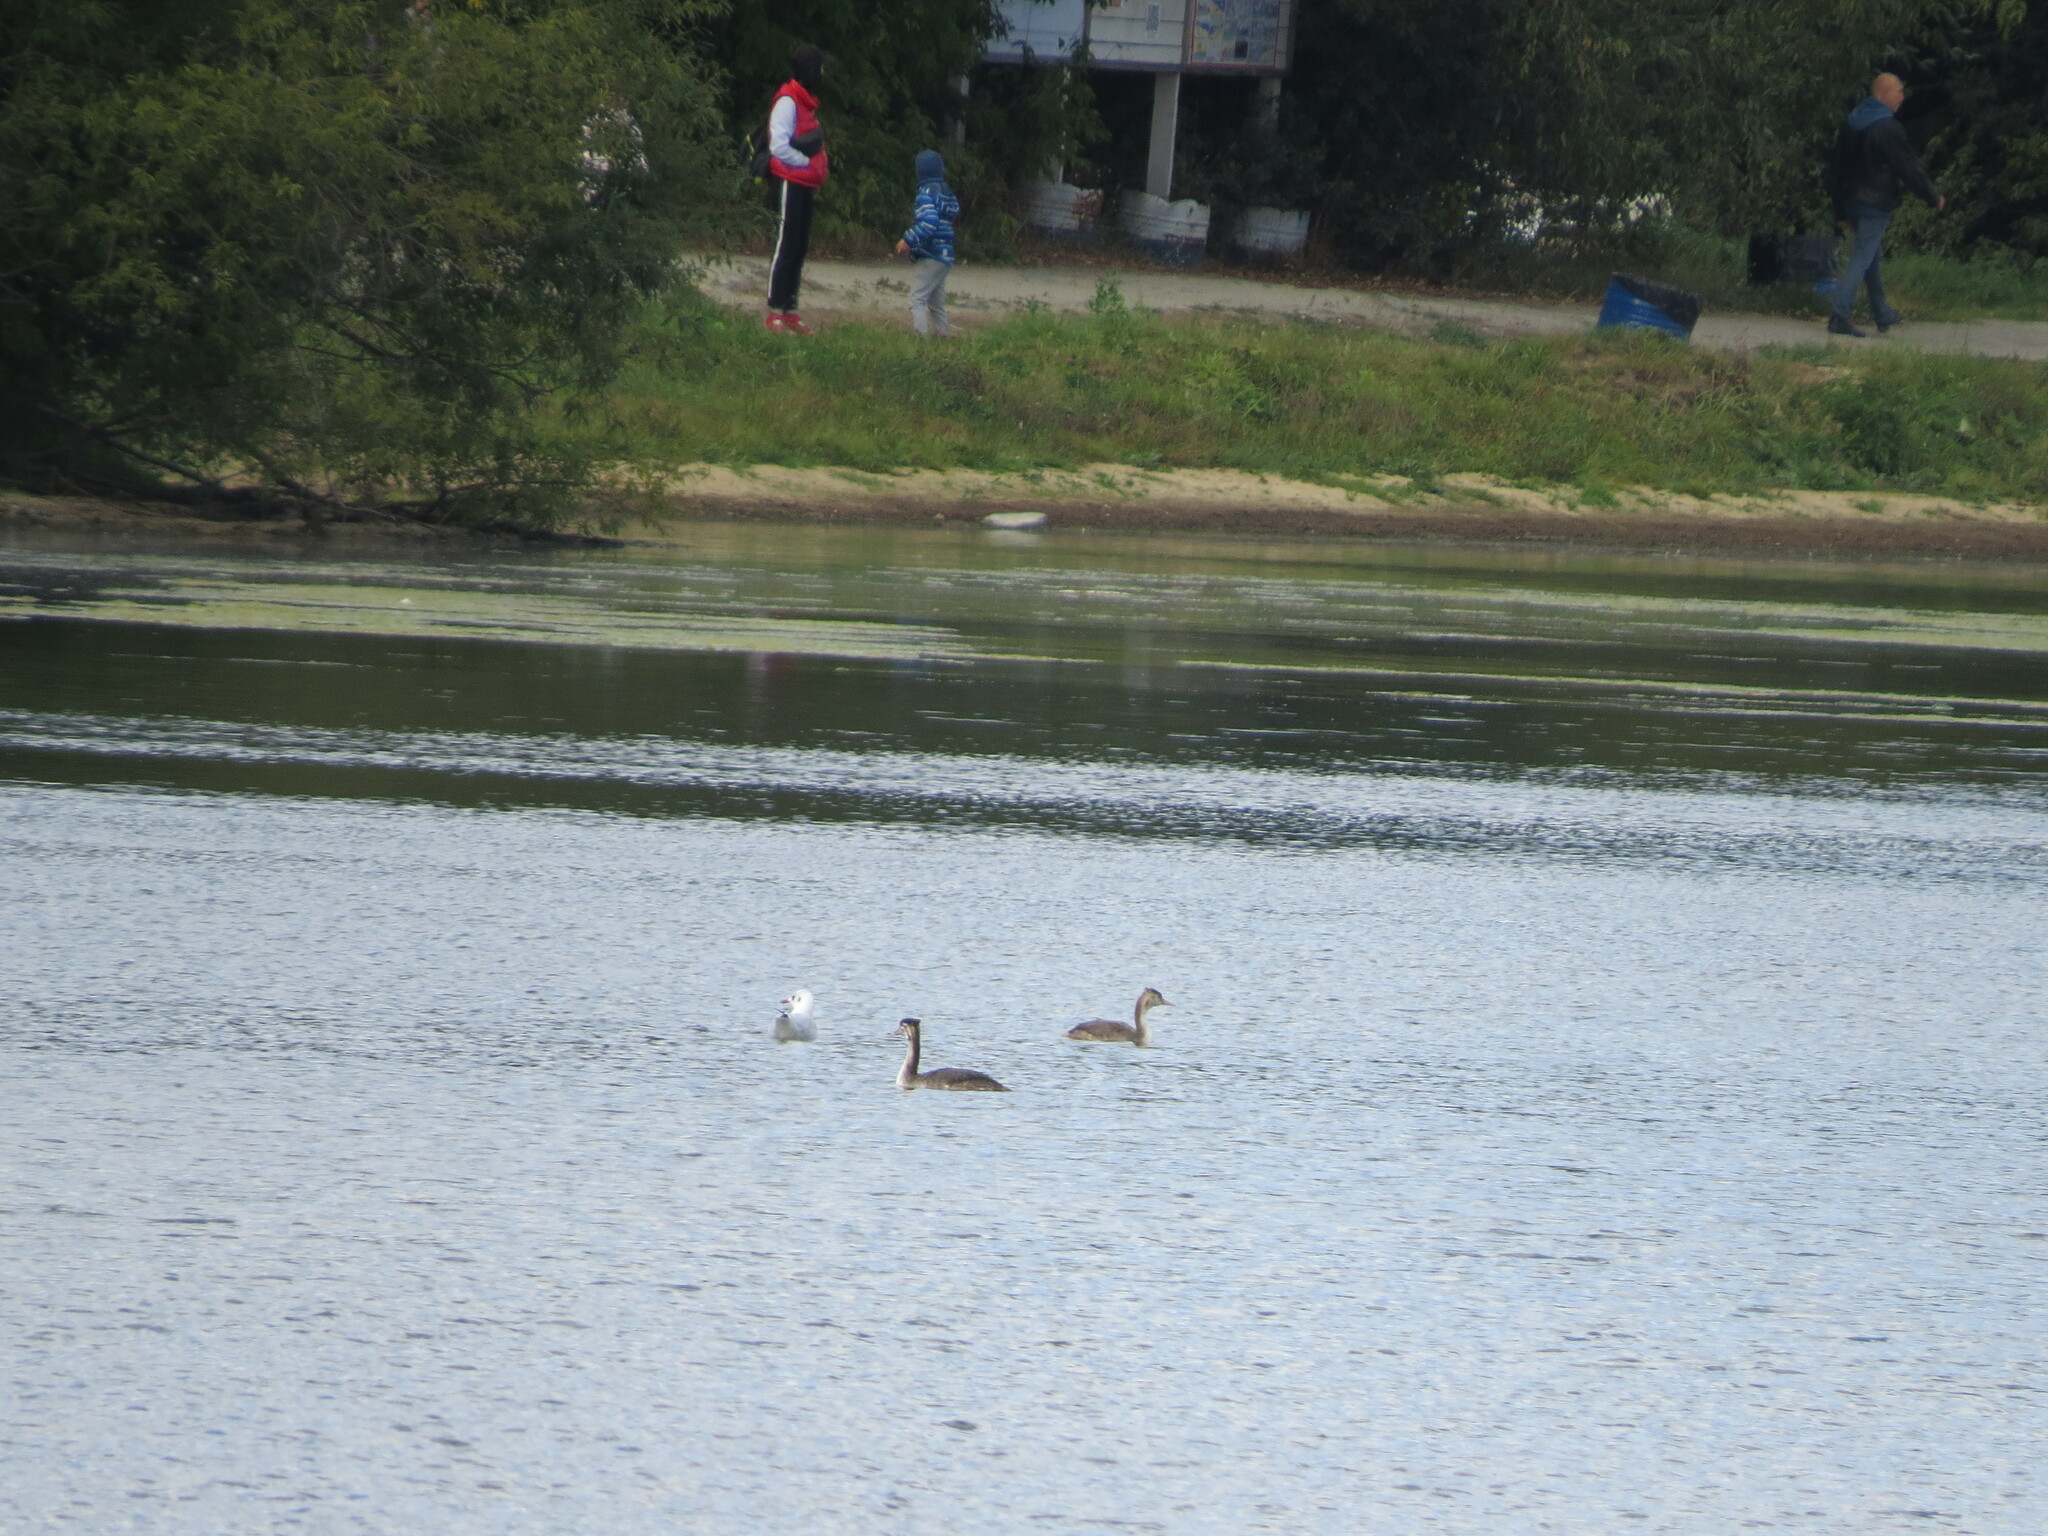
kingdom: Animalia
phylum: Chordata
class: Aves
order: Podicipediformes
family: Podicipedidae
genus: Podiceps
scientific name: Podiceps cristatus
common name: Great crested grebe
